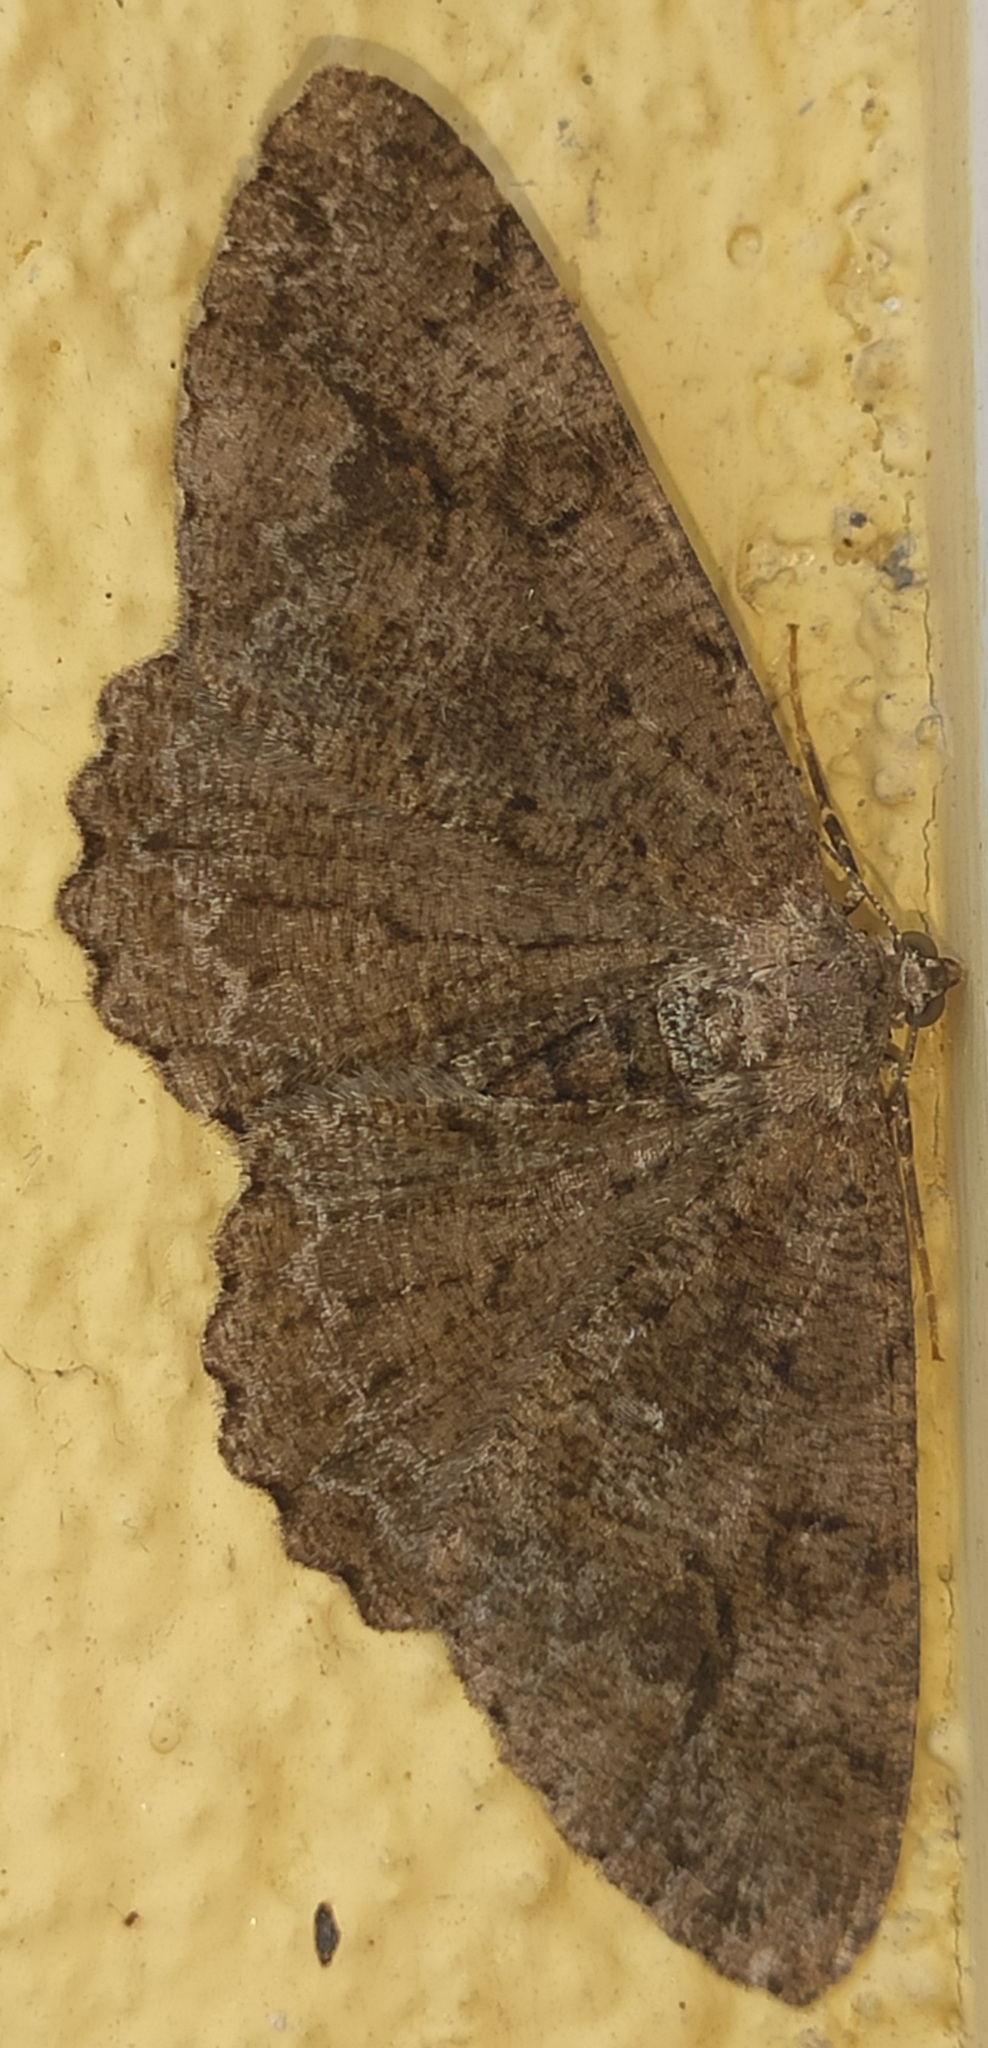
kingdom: Animalia
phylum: Arthropoda
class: Insecta
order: Lepidoptera
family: Geometridae
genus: Alcis
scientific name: Alcis repandata
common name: Mottled beauty
